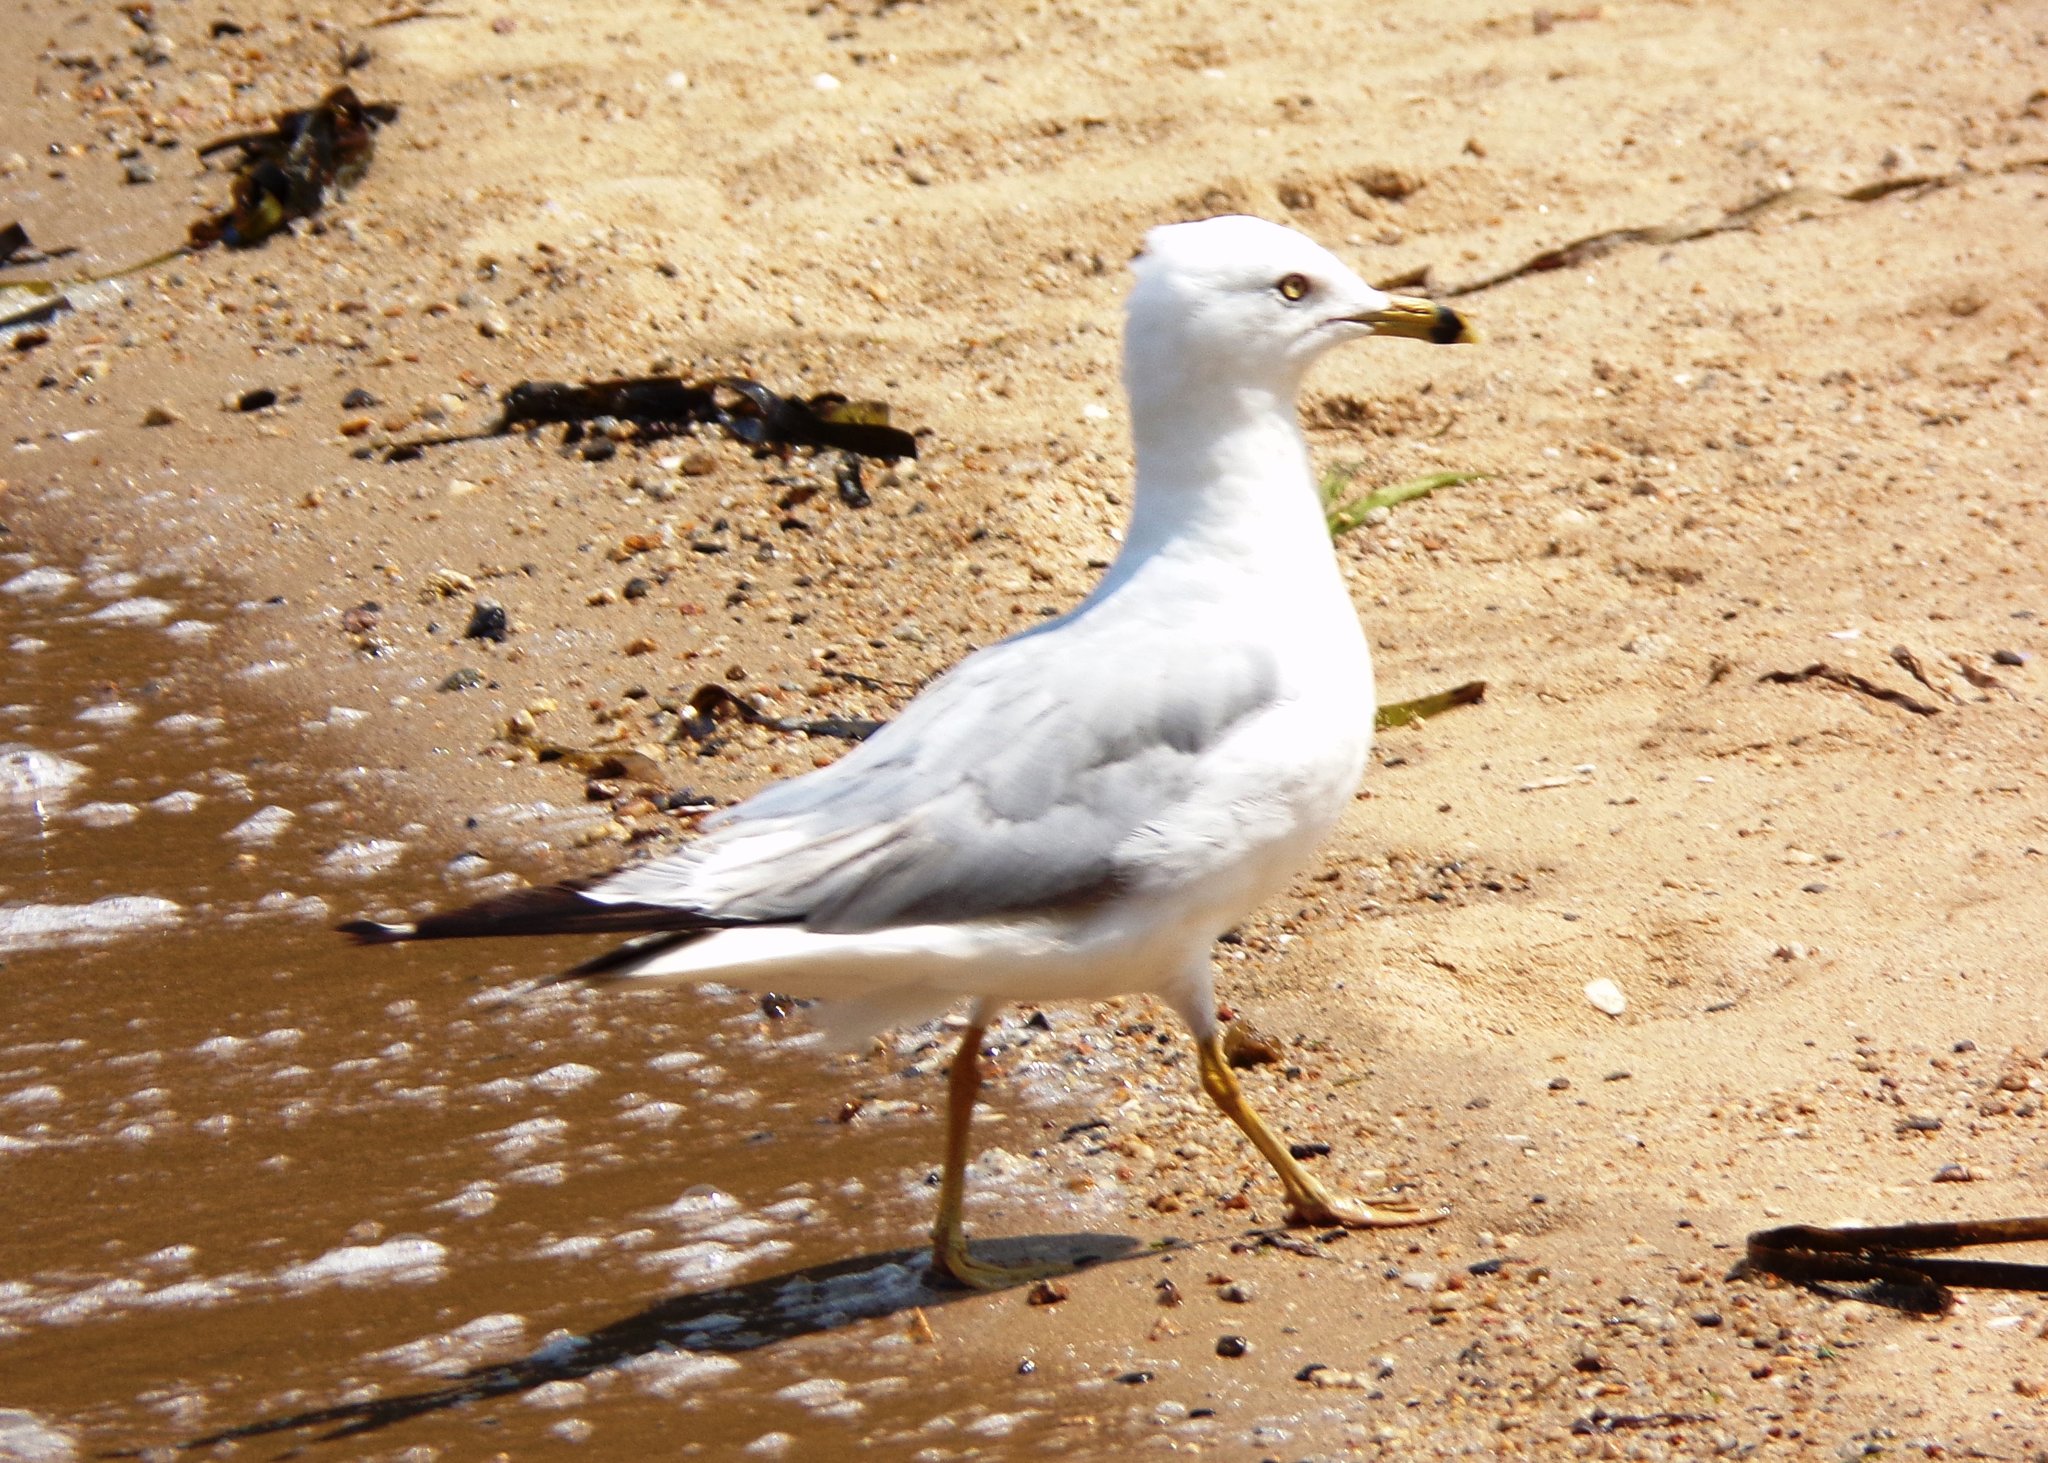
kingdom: Animalia
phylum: Chordata
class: Aves
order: Charadriiformes
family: Laridae
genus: Larus
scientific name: Larus delawarensis
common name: Ring-billed gull
